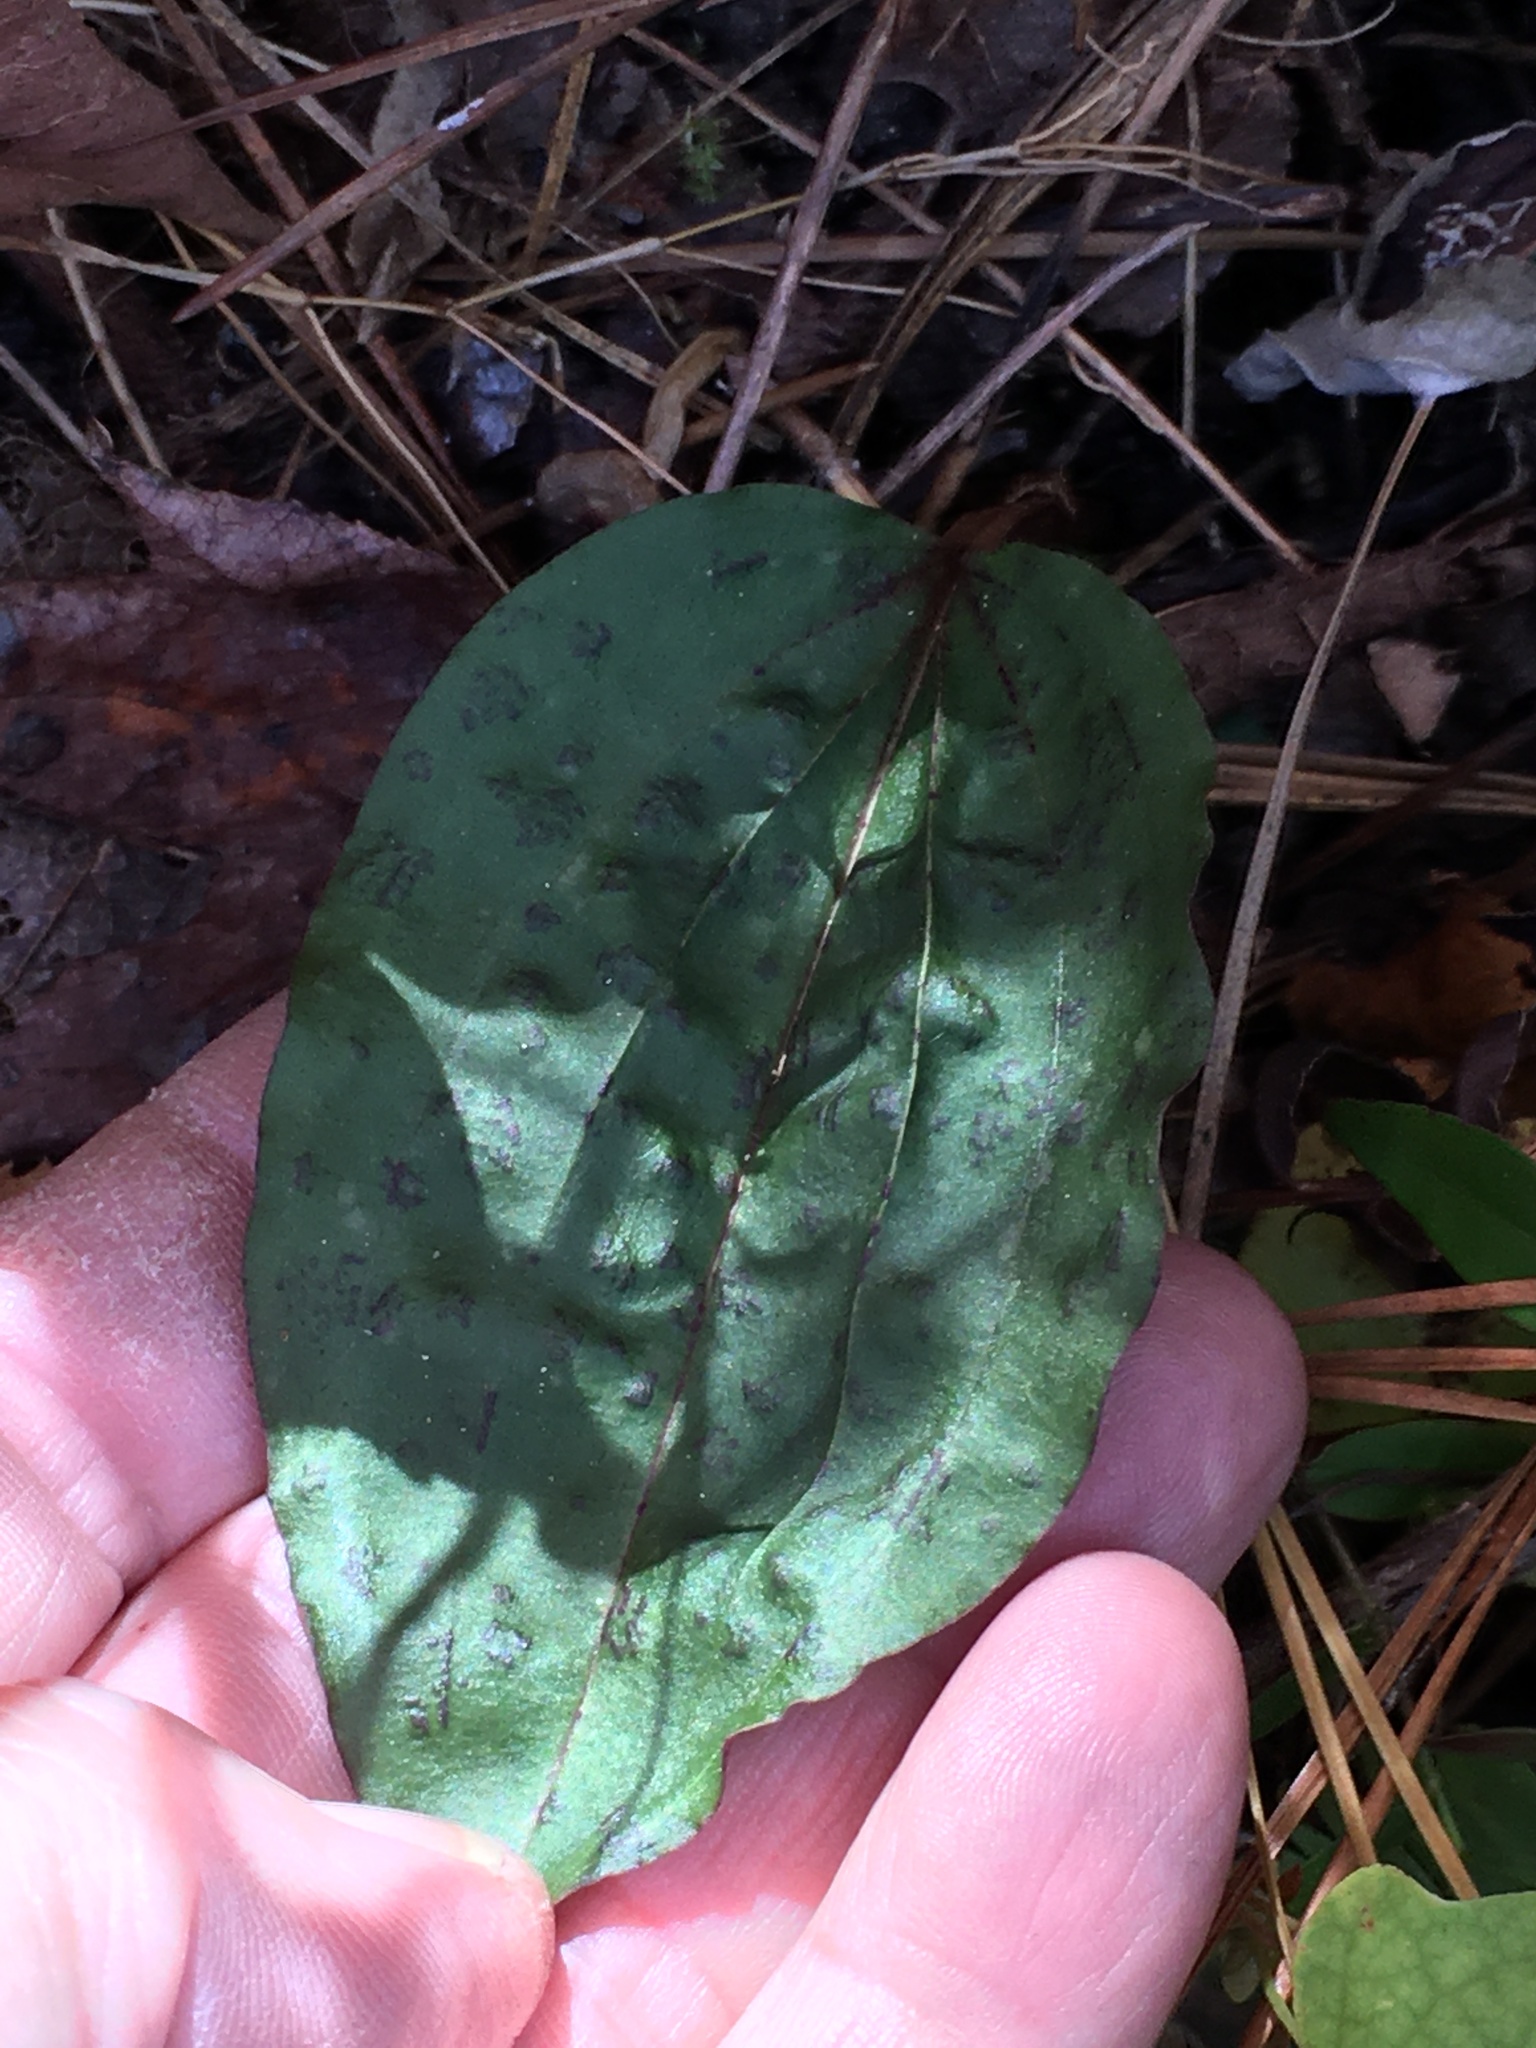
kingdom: Plantae
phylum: Tracheophyta
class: Liliopsida
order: Asparagales
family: Orchidaceae
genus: Tipularia
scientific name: Tipularia discolor
